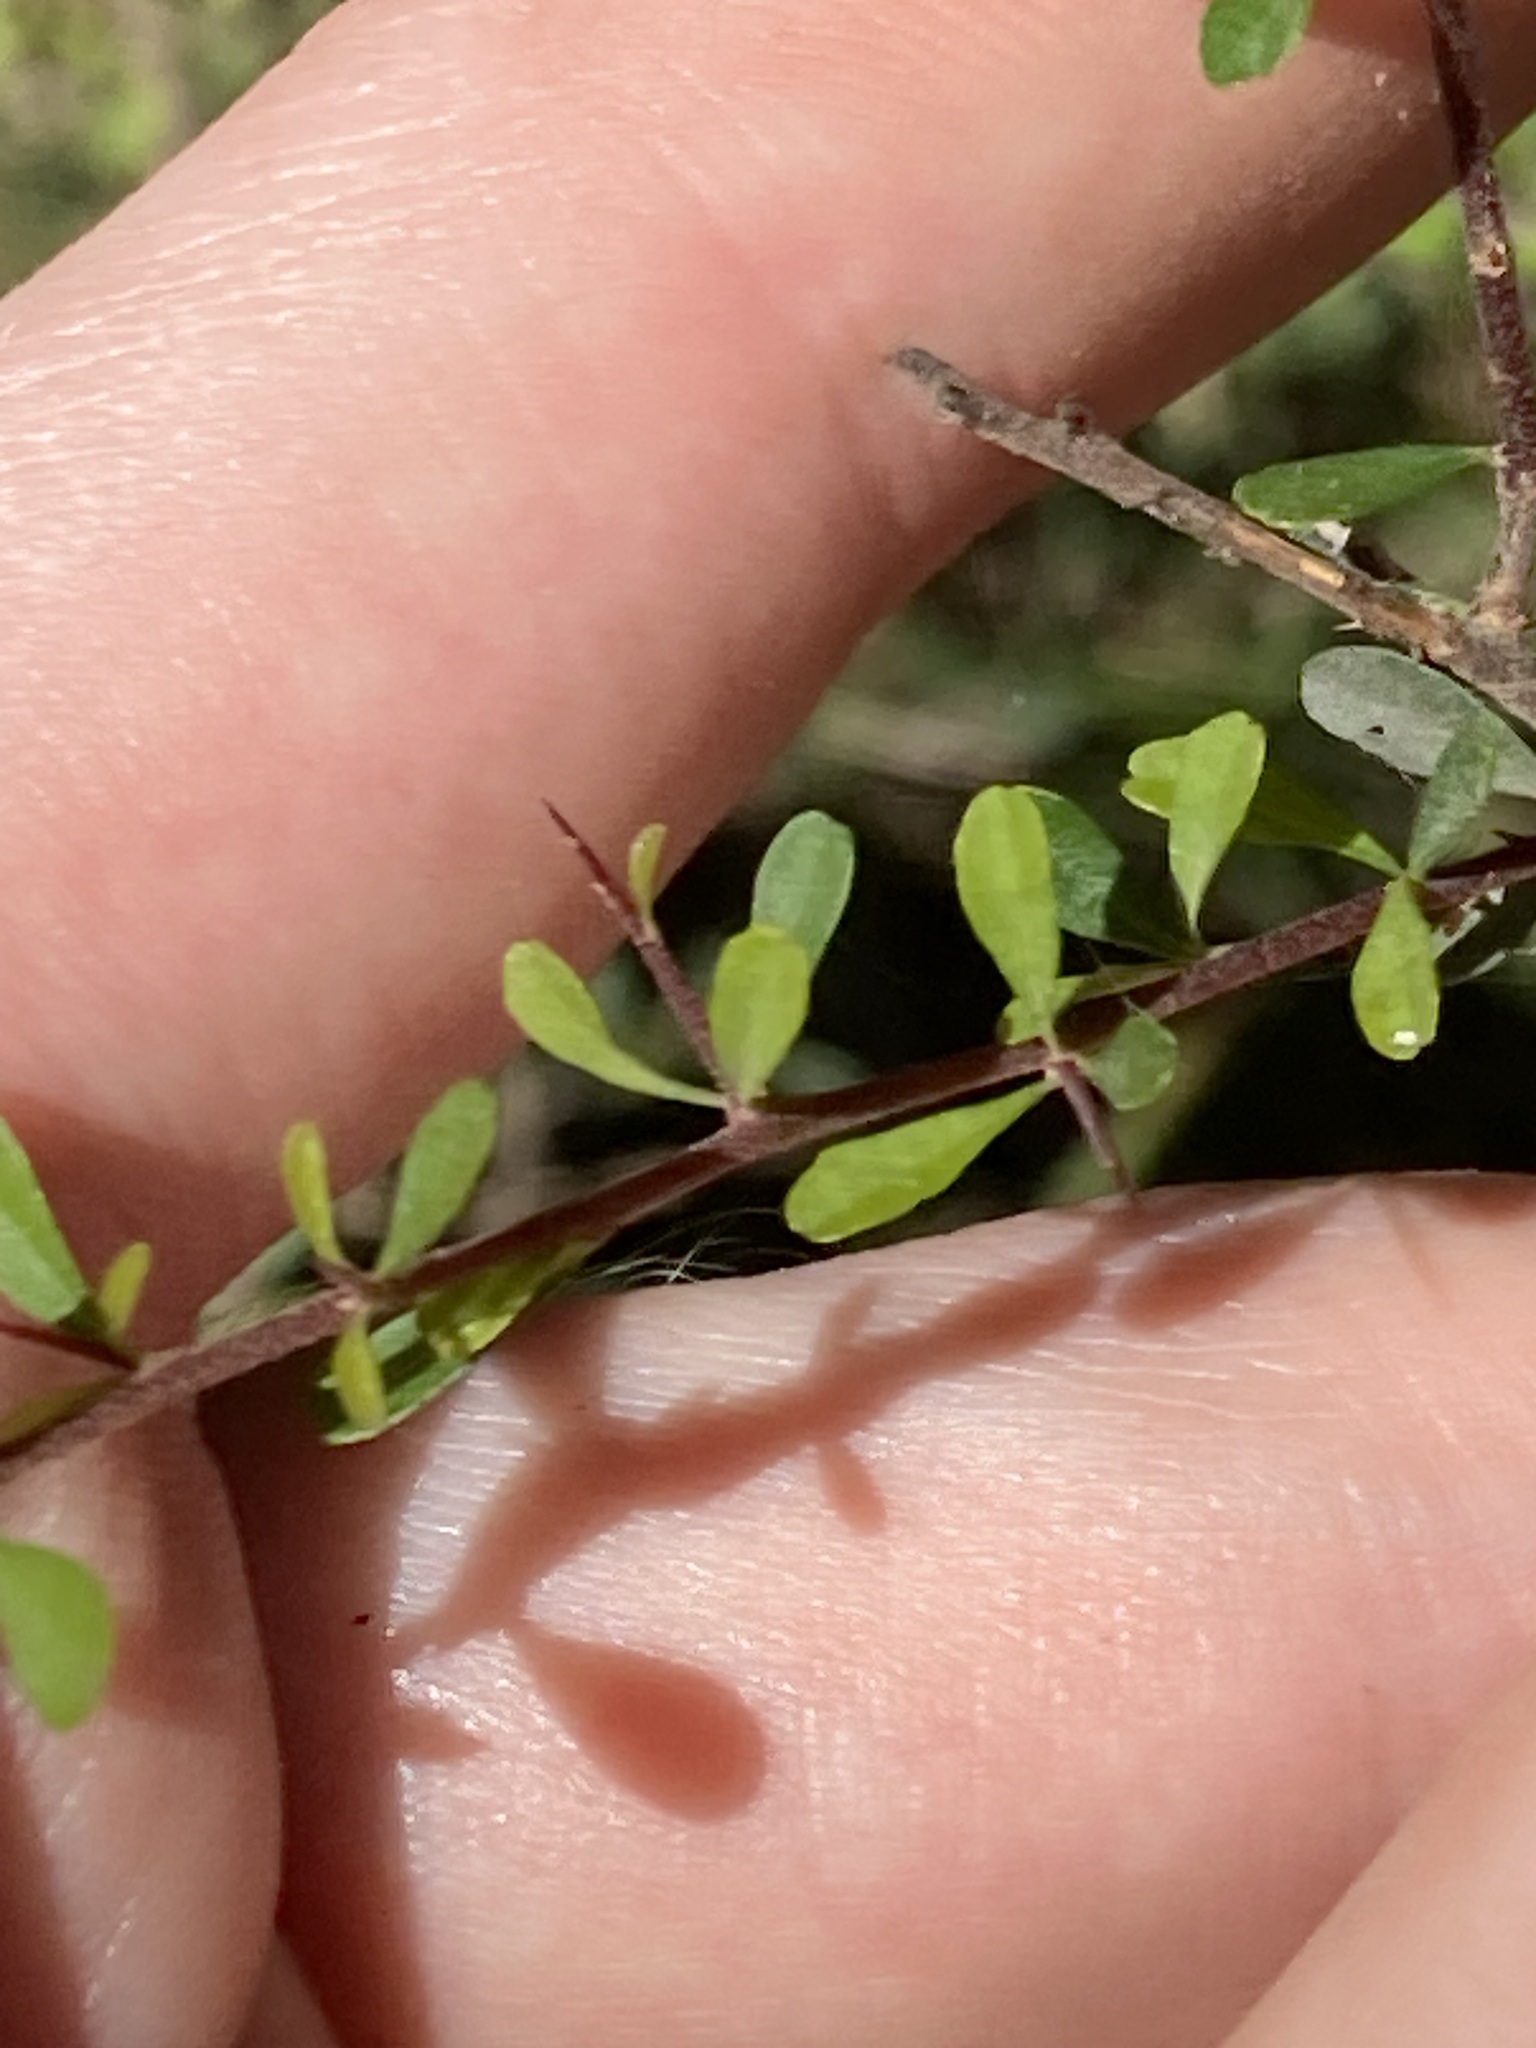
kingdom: Plantae
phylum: Tracheophyta
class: Magnoliopsida
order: Apiales
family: Pittosporaceae
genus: Bursaria
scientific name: Bursaria spinosa
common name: Australian blackthorn
